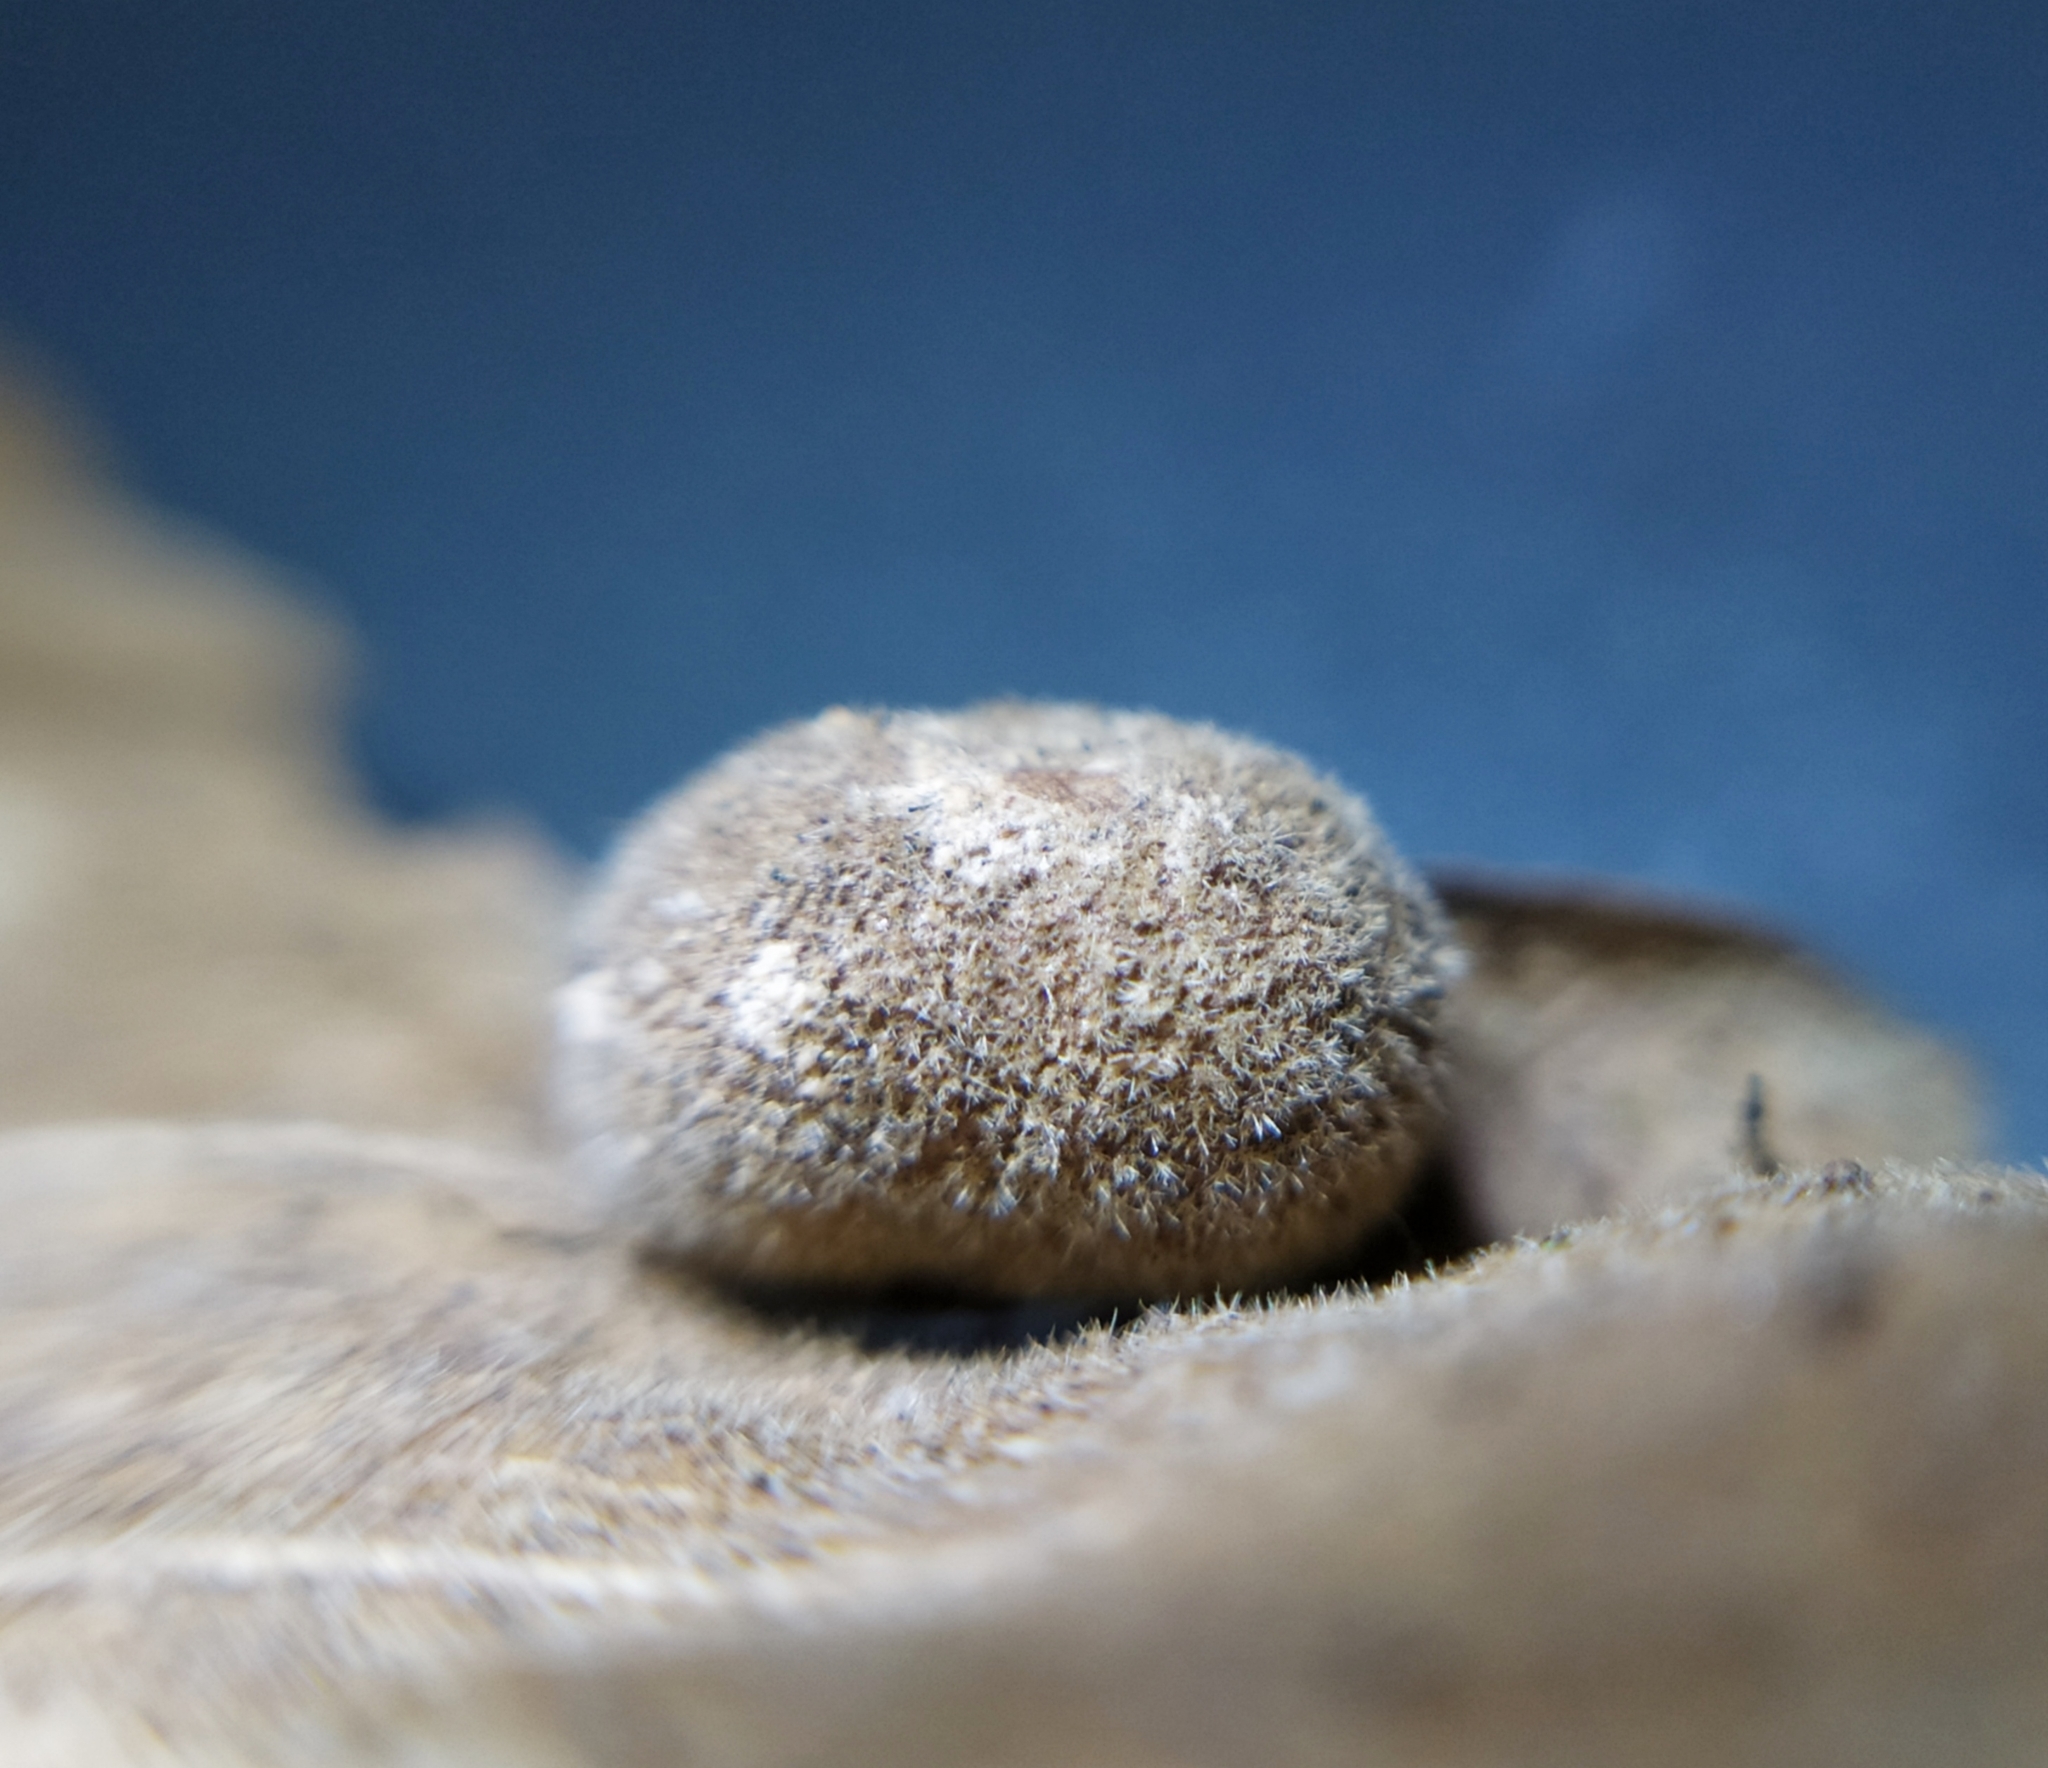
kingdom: Animalia
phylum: Arthropoda
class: Insecta
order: Hymenoptera
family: Cynipidae
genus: Chilaspis
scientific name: Chilaspis nitida
